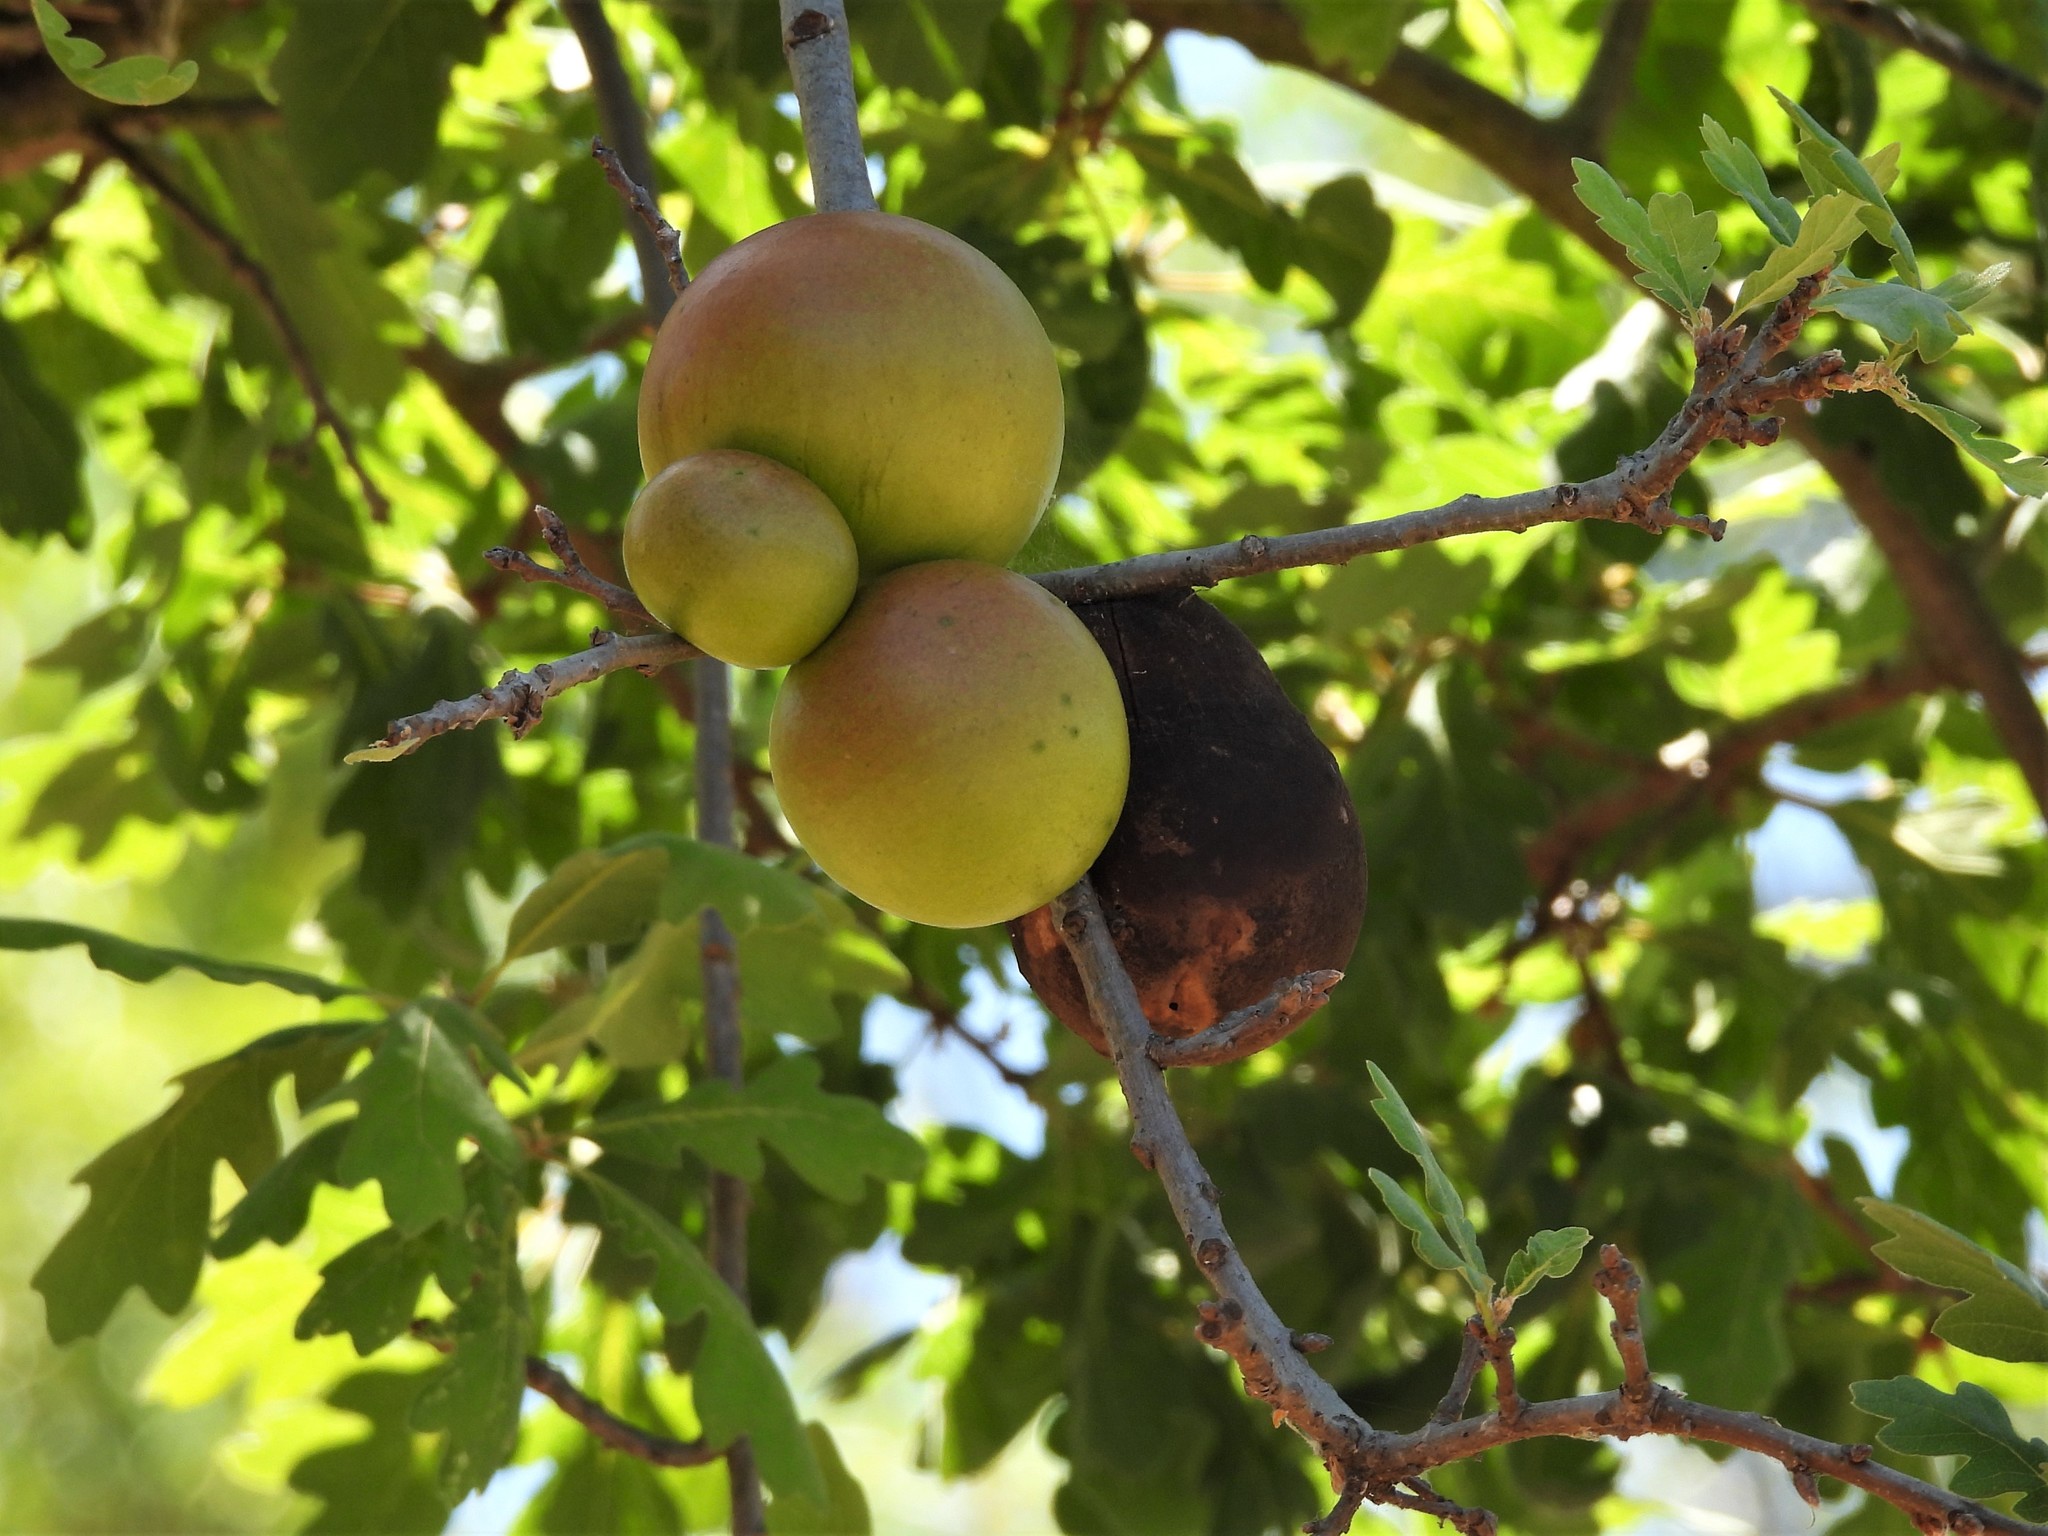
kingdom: Animalia
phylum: Arthropoda
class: Insecta
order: Hymenoptera
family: Cynipidae
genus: Andricus
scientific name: Andricus quercuscalifornicus
